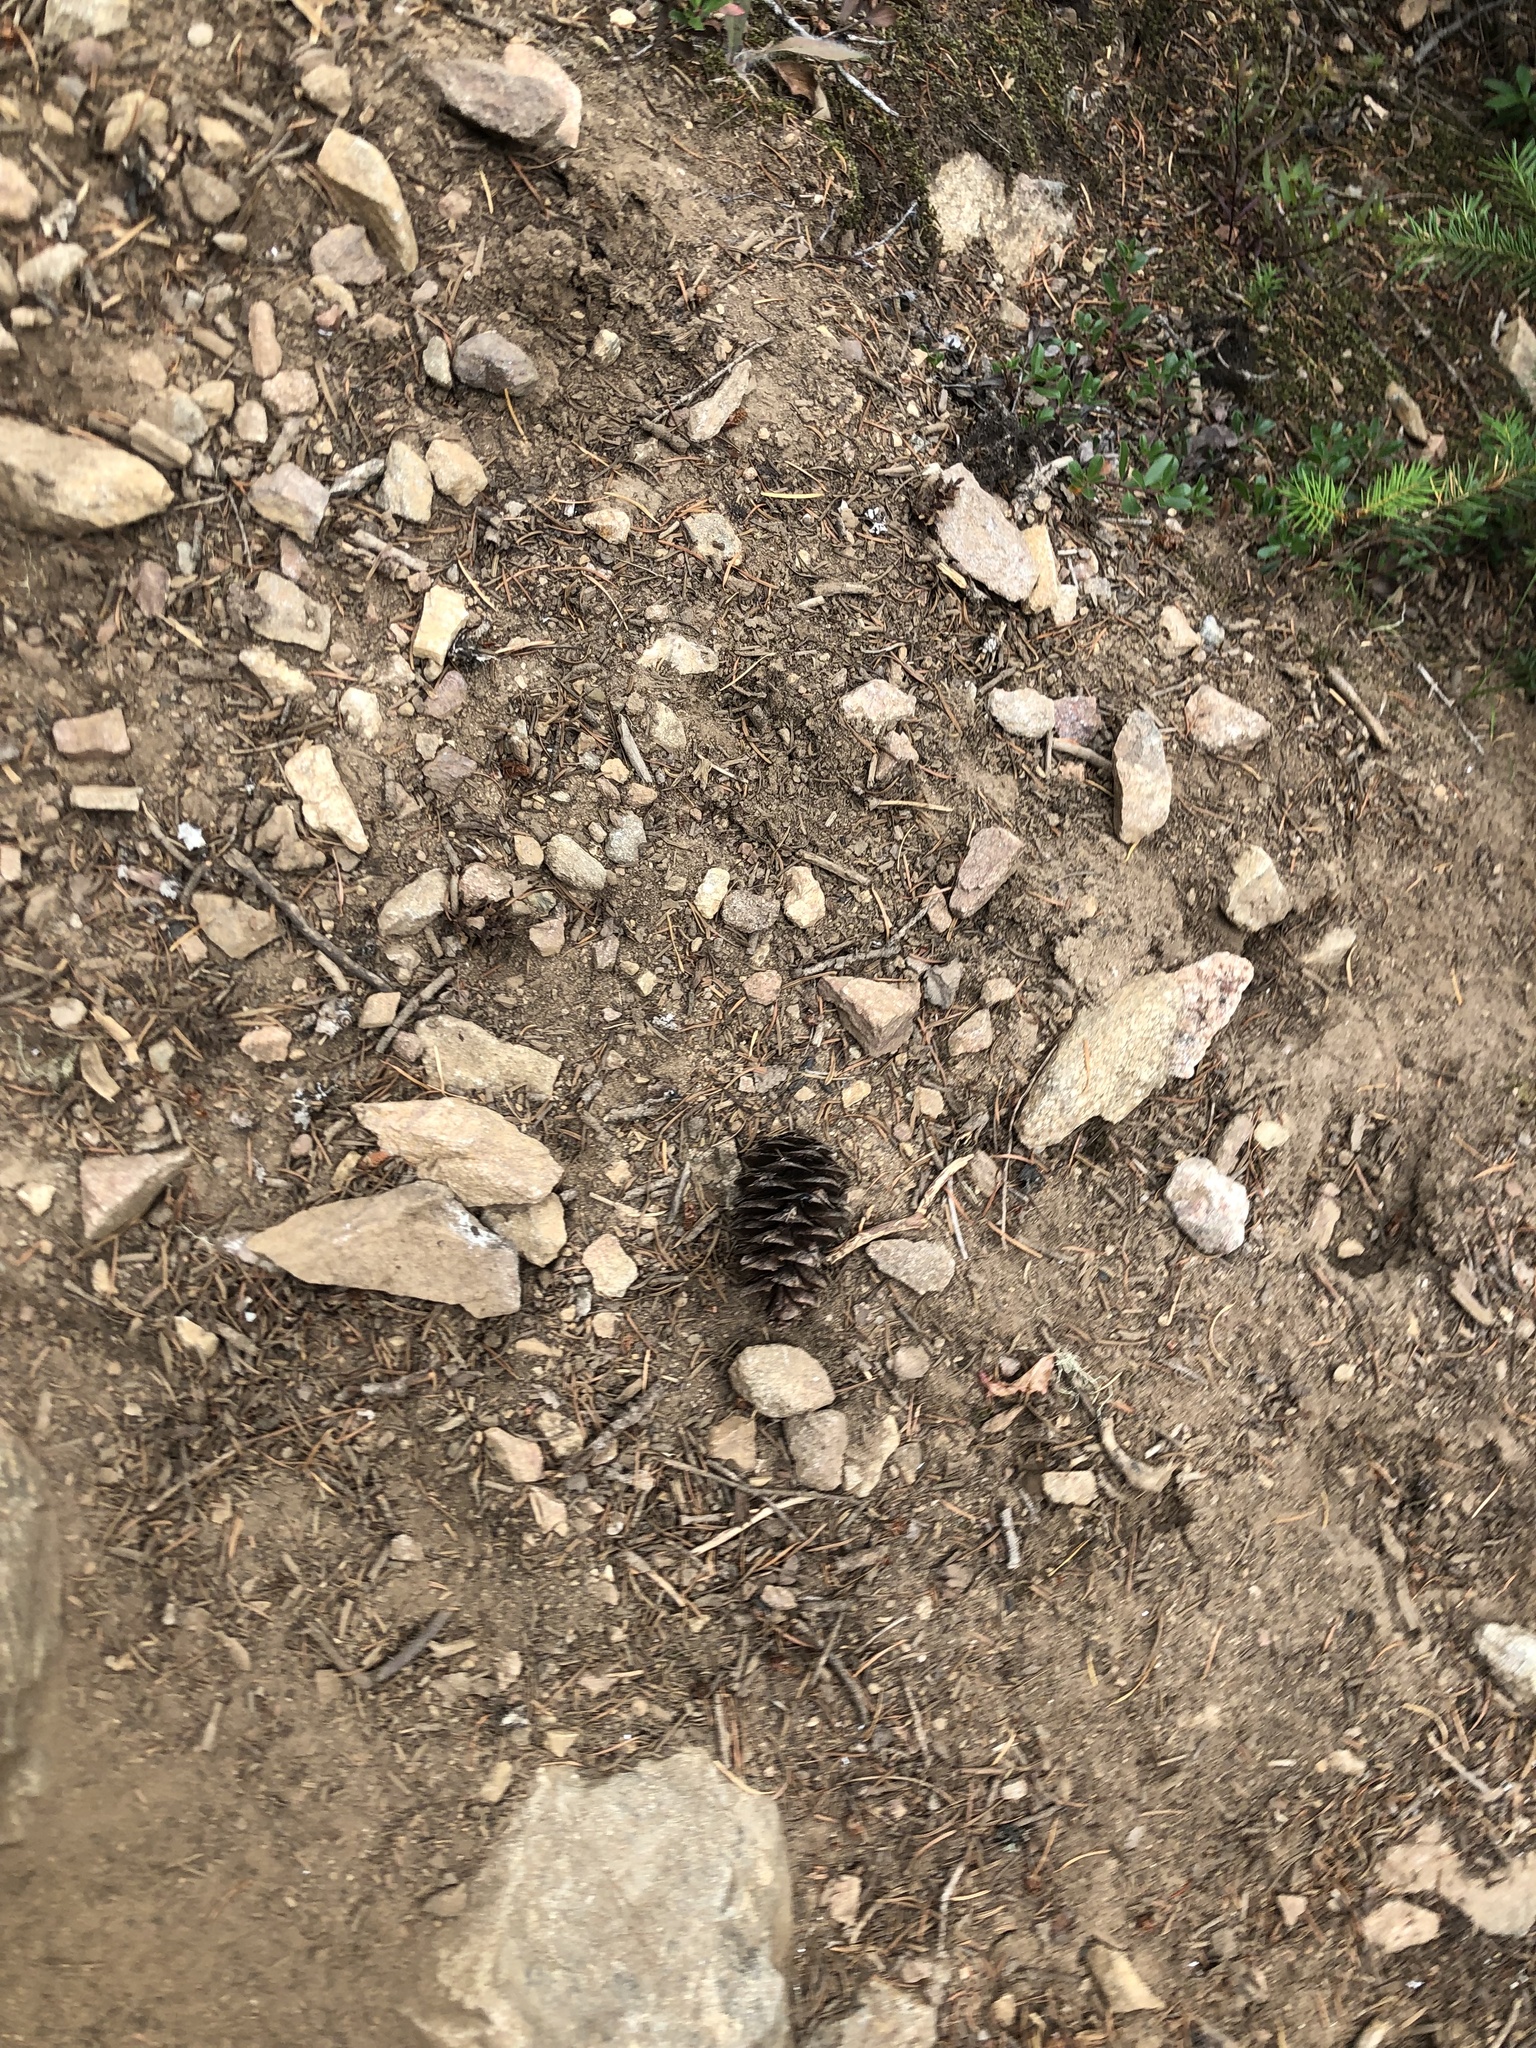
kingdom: Plantae
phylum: Tracheophyta
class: Pinopsida
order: Pinales
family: Pinaceae
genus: Pseudotsuga
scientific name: Pseudotsuga menziesii
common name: Douglas fir
